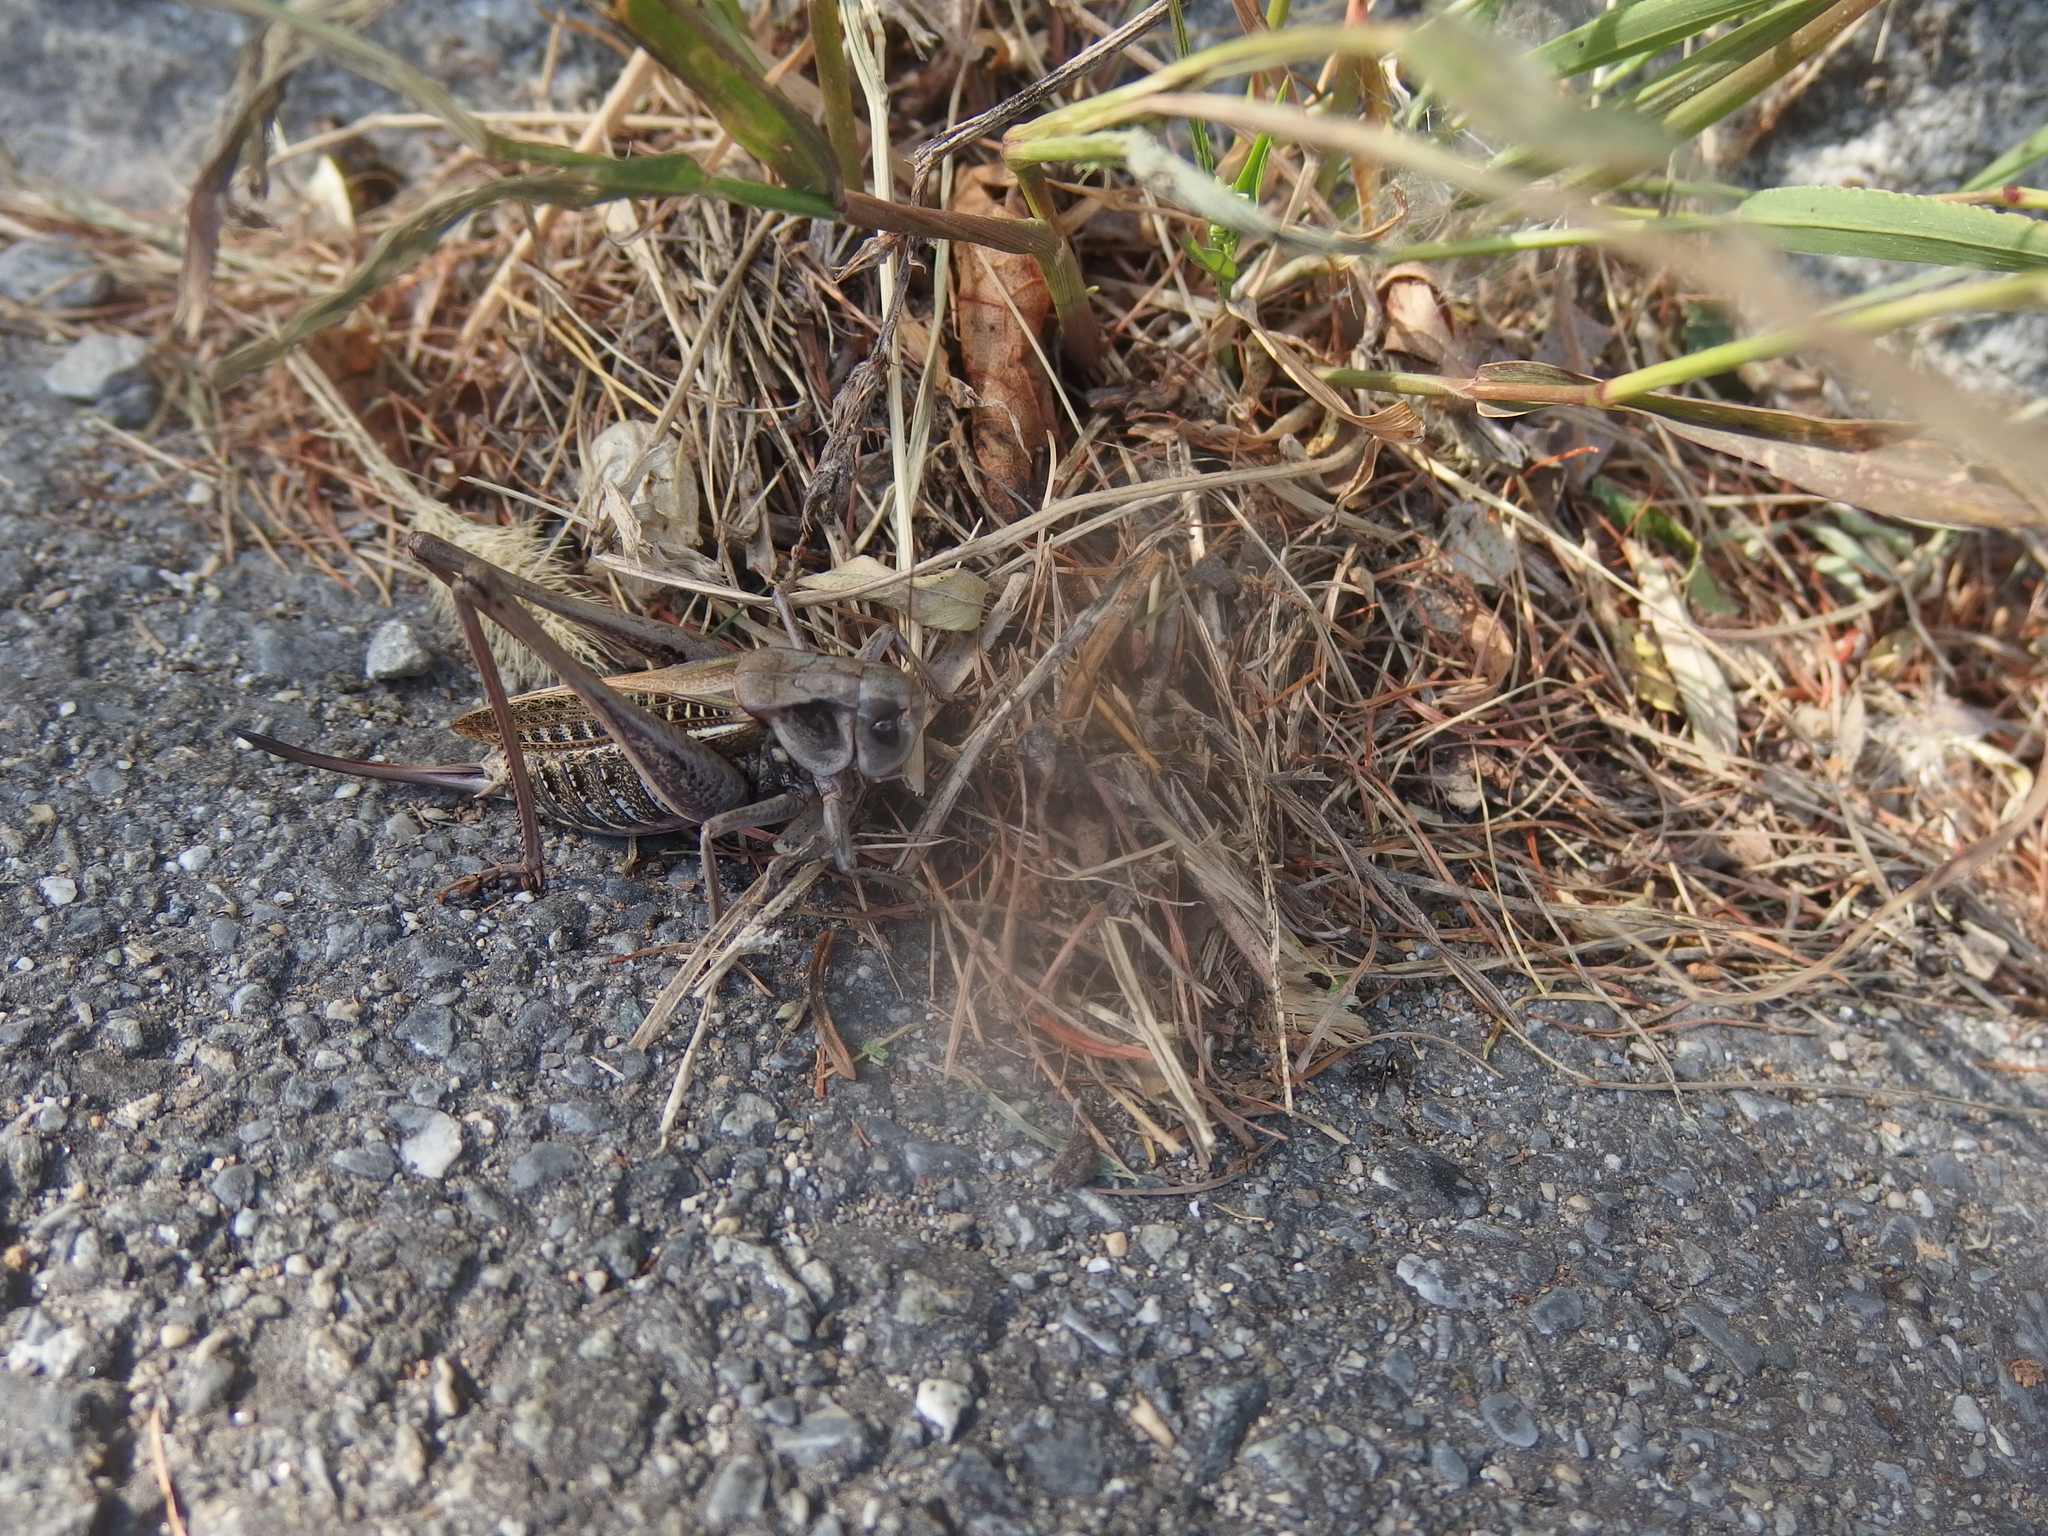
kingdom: Animalia
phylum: Arthropoda
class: Insecta
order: Orthoptera
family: Tettigoniidae
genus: Decticus
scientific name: Decticus verrucivorus
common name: Wart-biter
